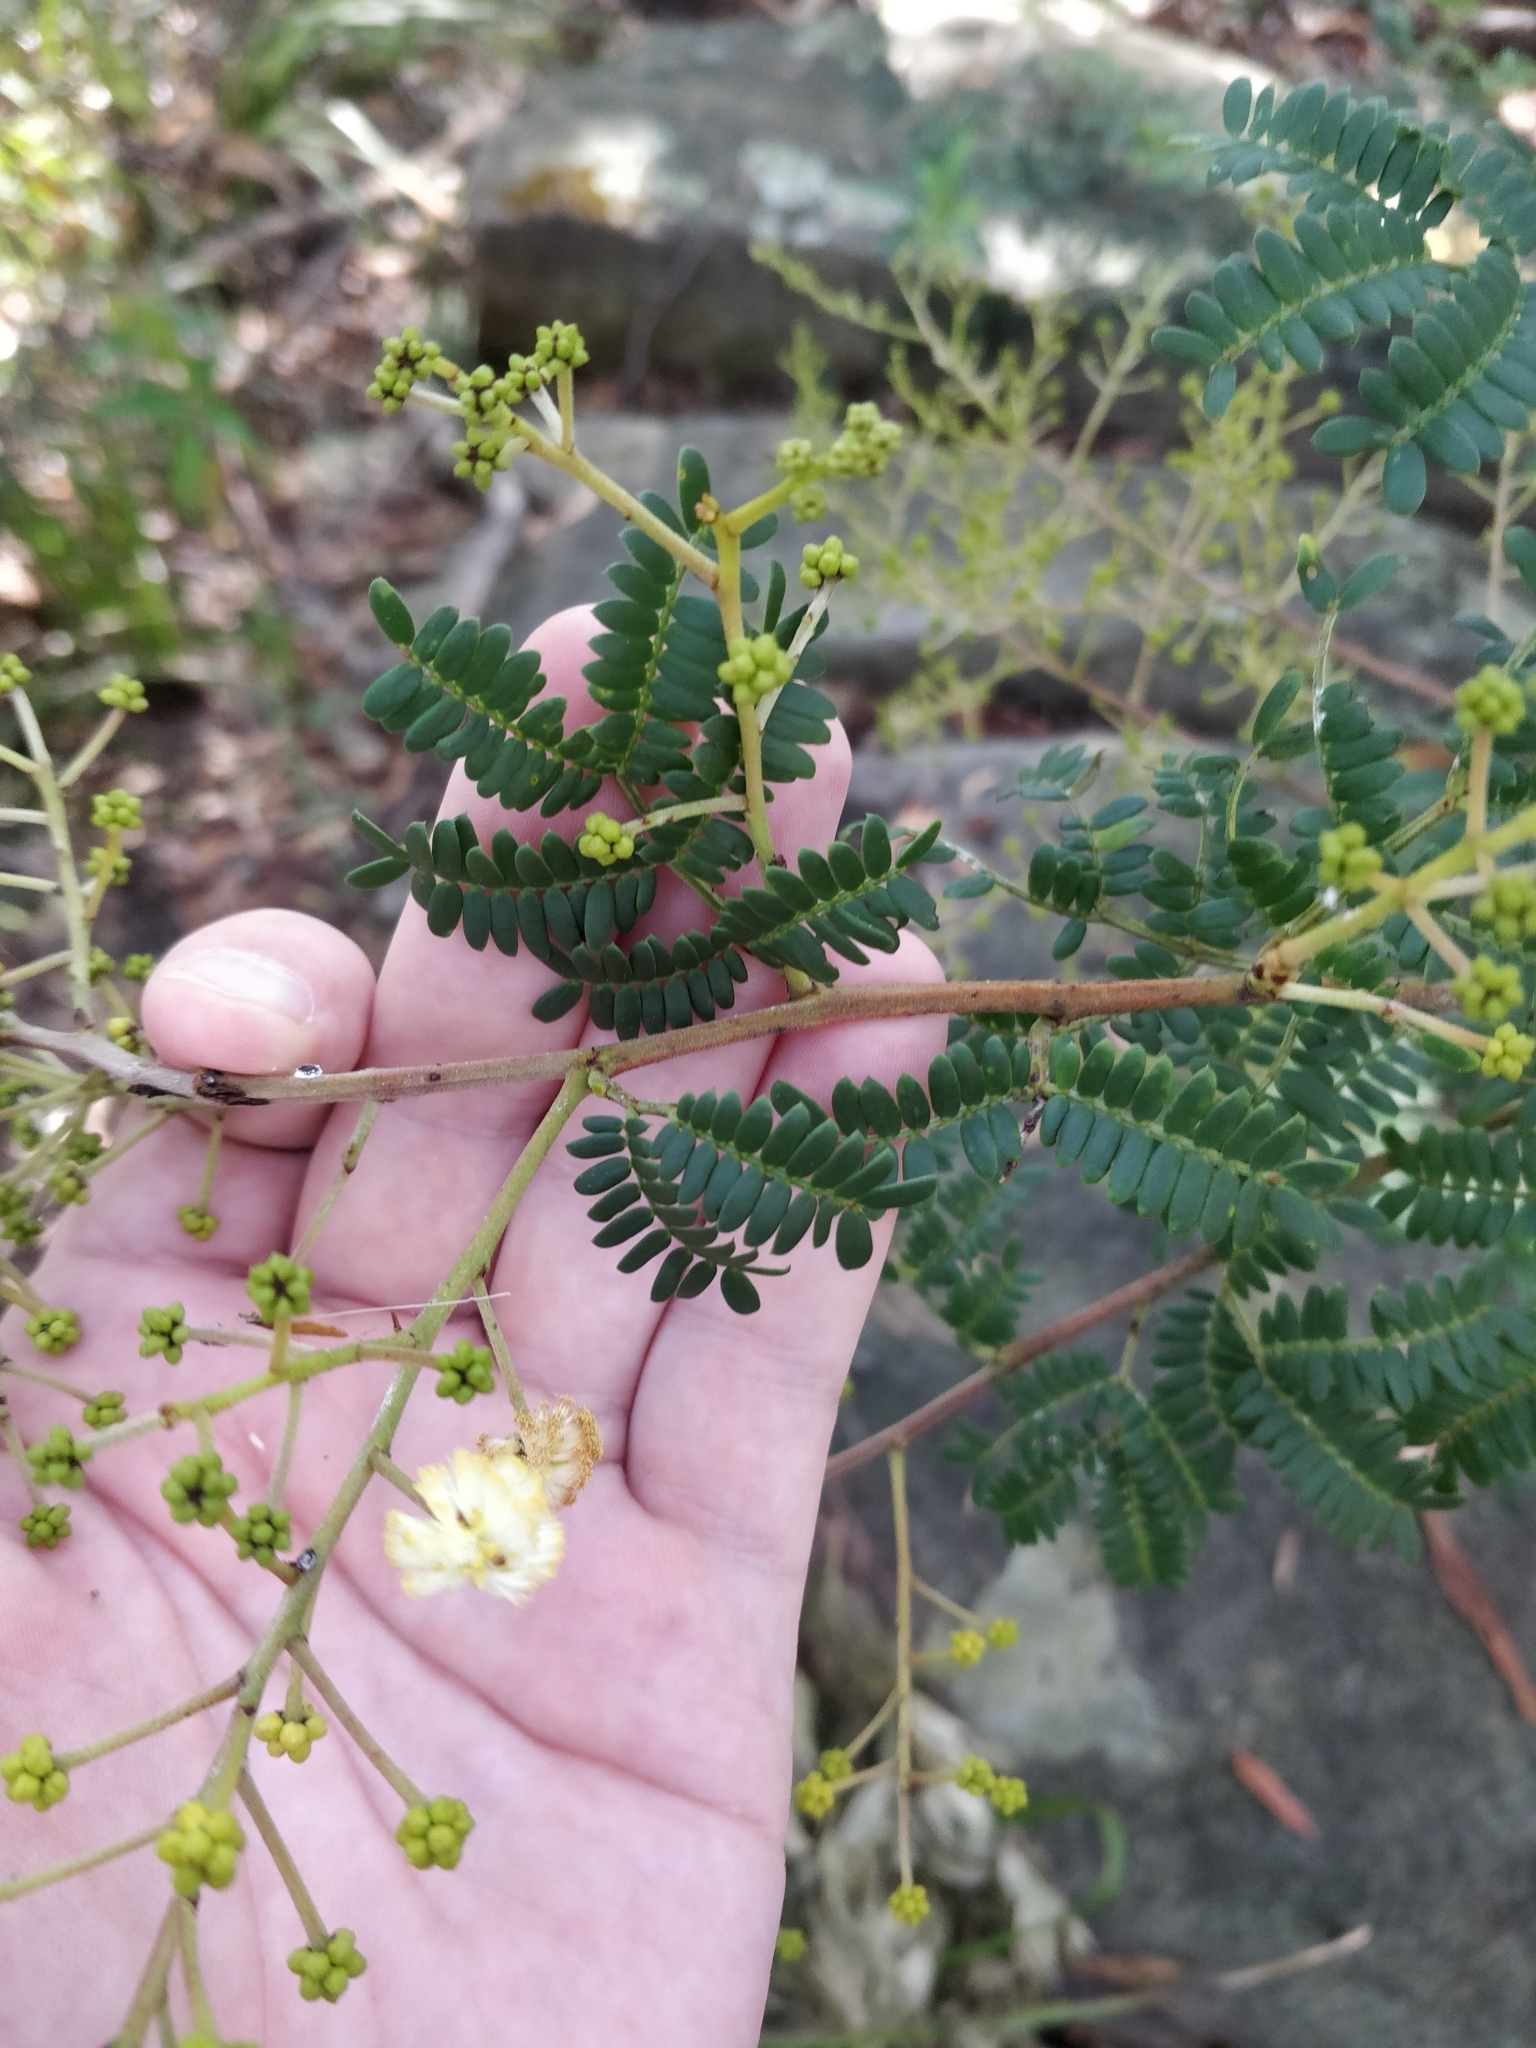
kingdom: Plantae
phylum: Tracheophyta
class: Magnoliopsida
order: Fabales
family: Fabaceae
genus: Acacia
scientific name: Acacia terminalis
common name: Cedar wattle
